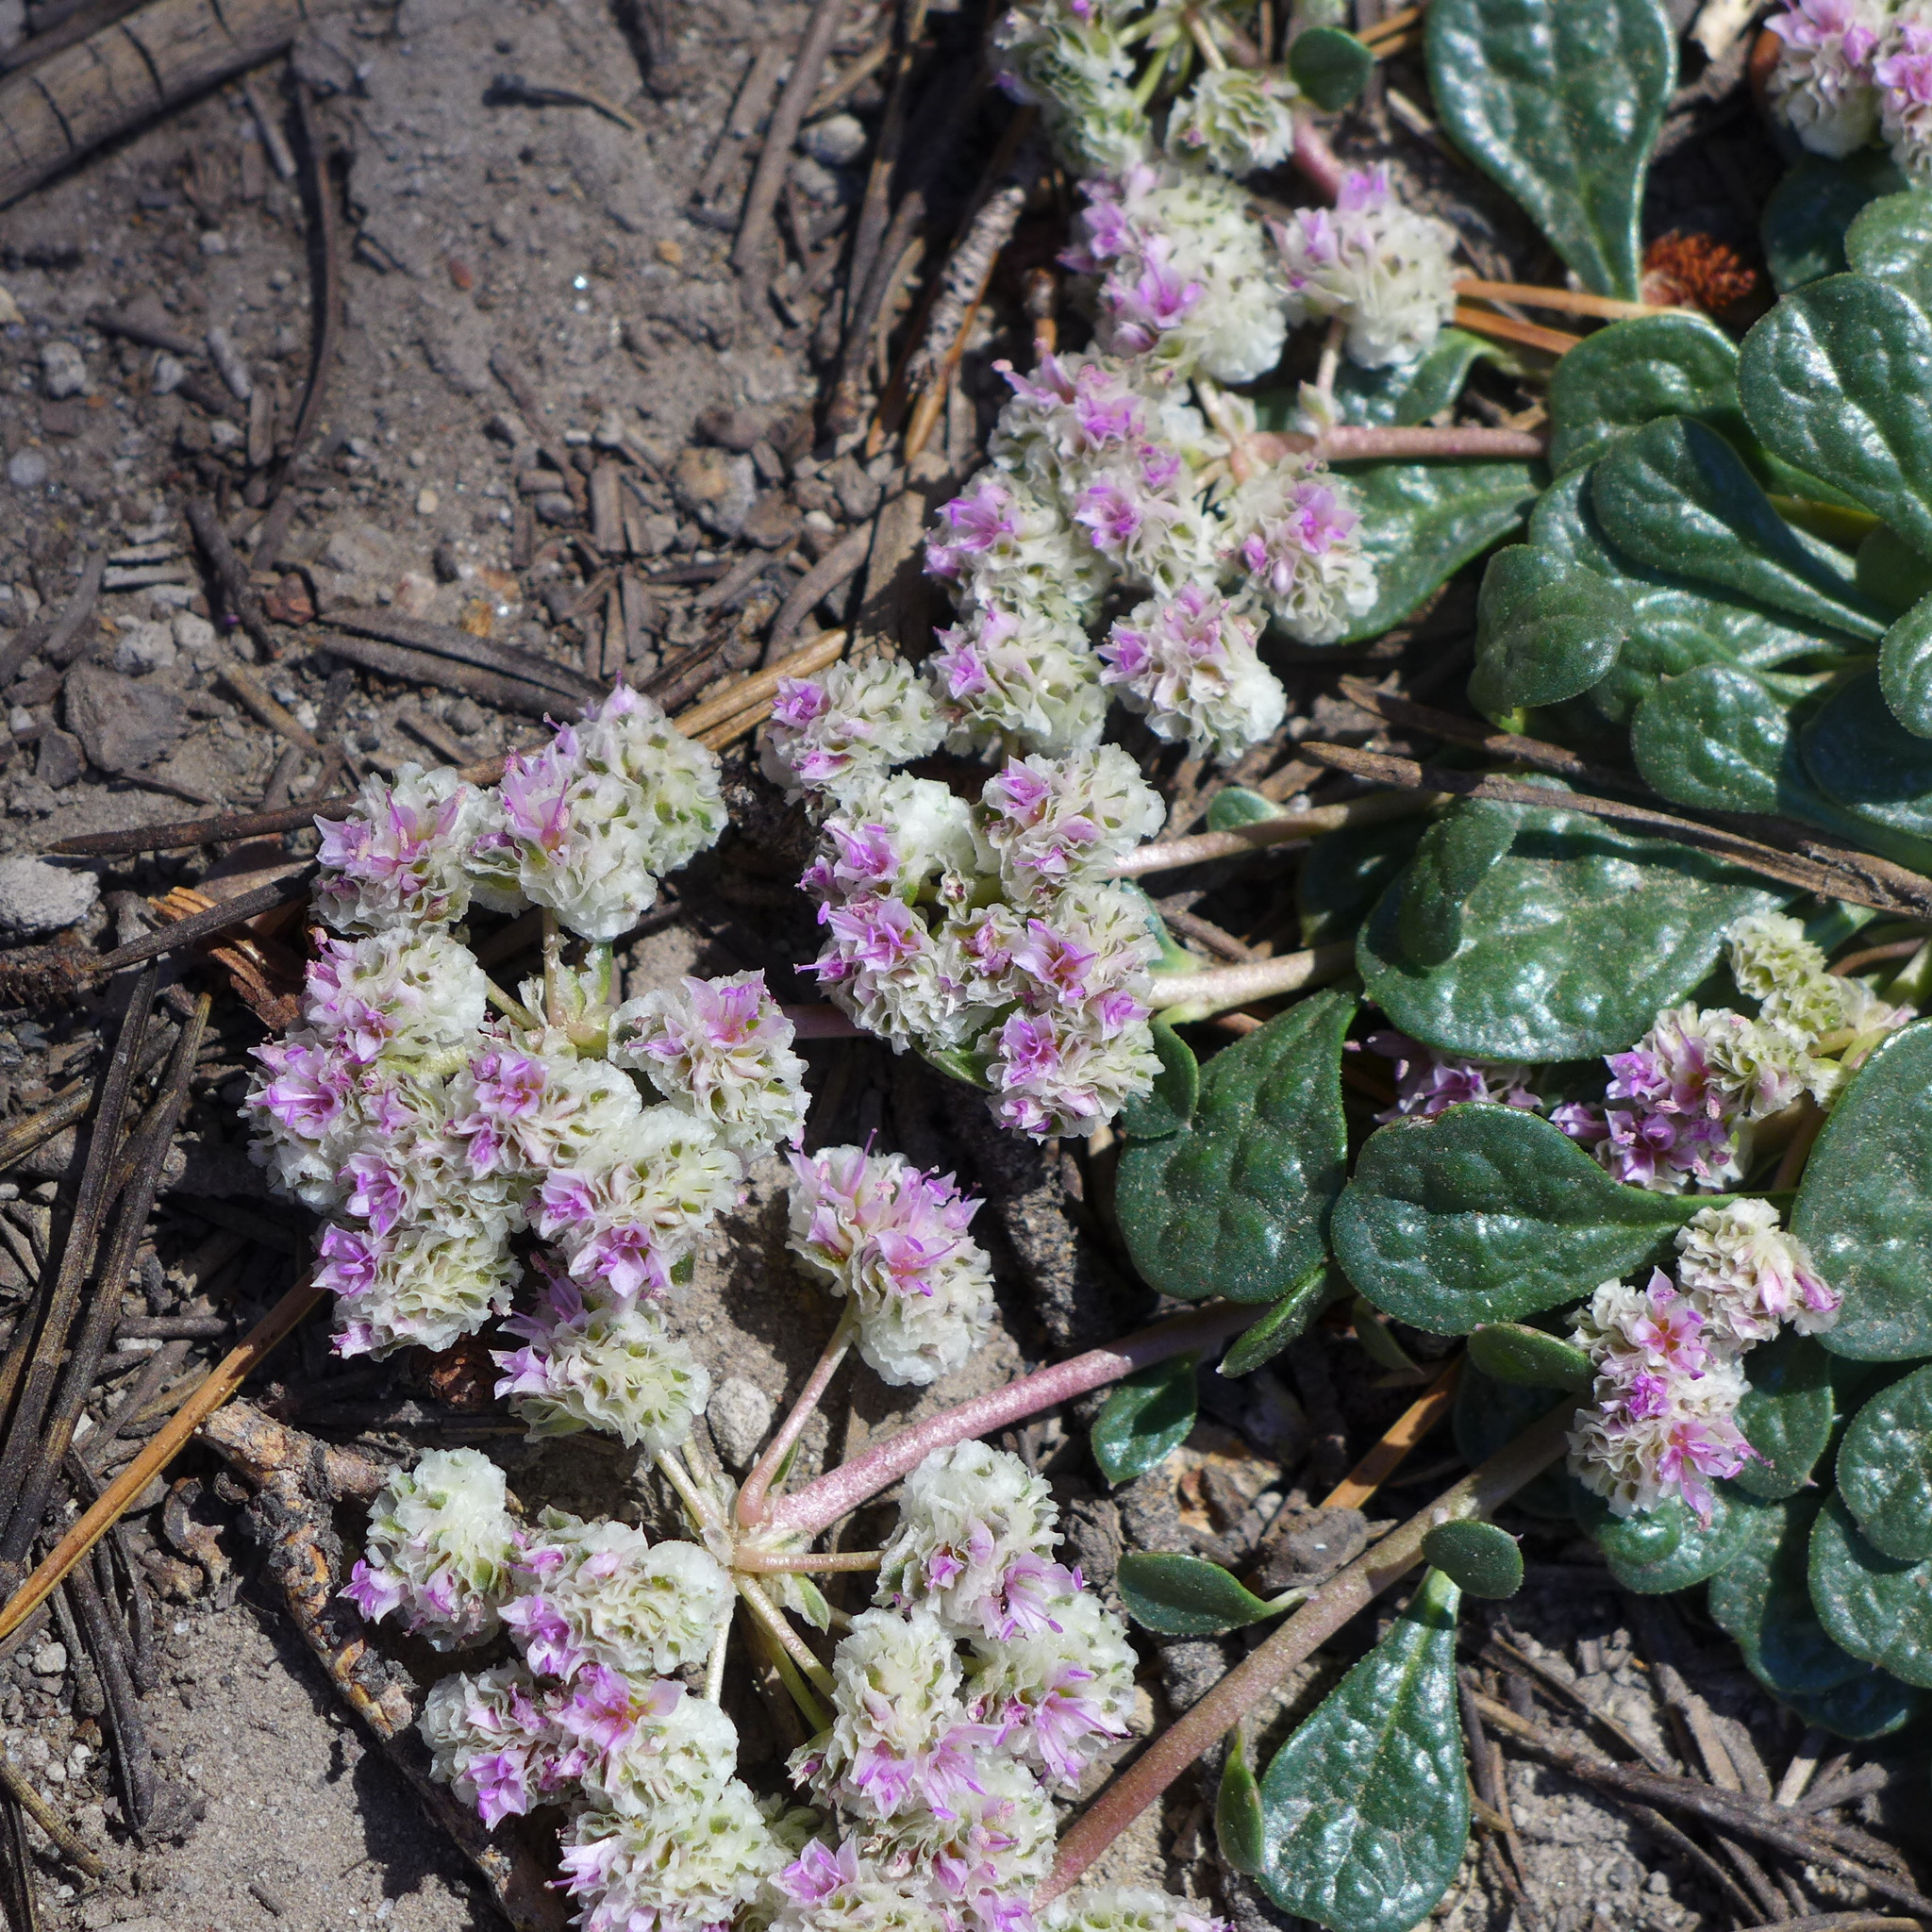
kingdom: Plantae
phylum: Tracheophyta
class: Magnoliopsida
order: Caryophyllales
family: Montiaceae
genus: Calyptridium
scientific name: Calyptridium monospermum
